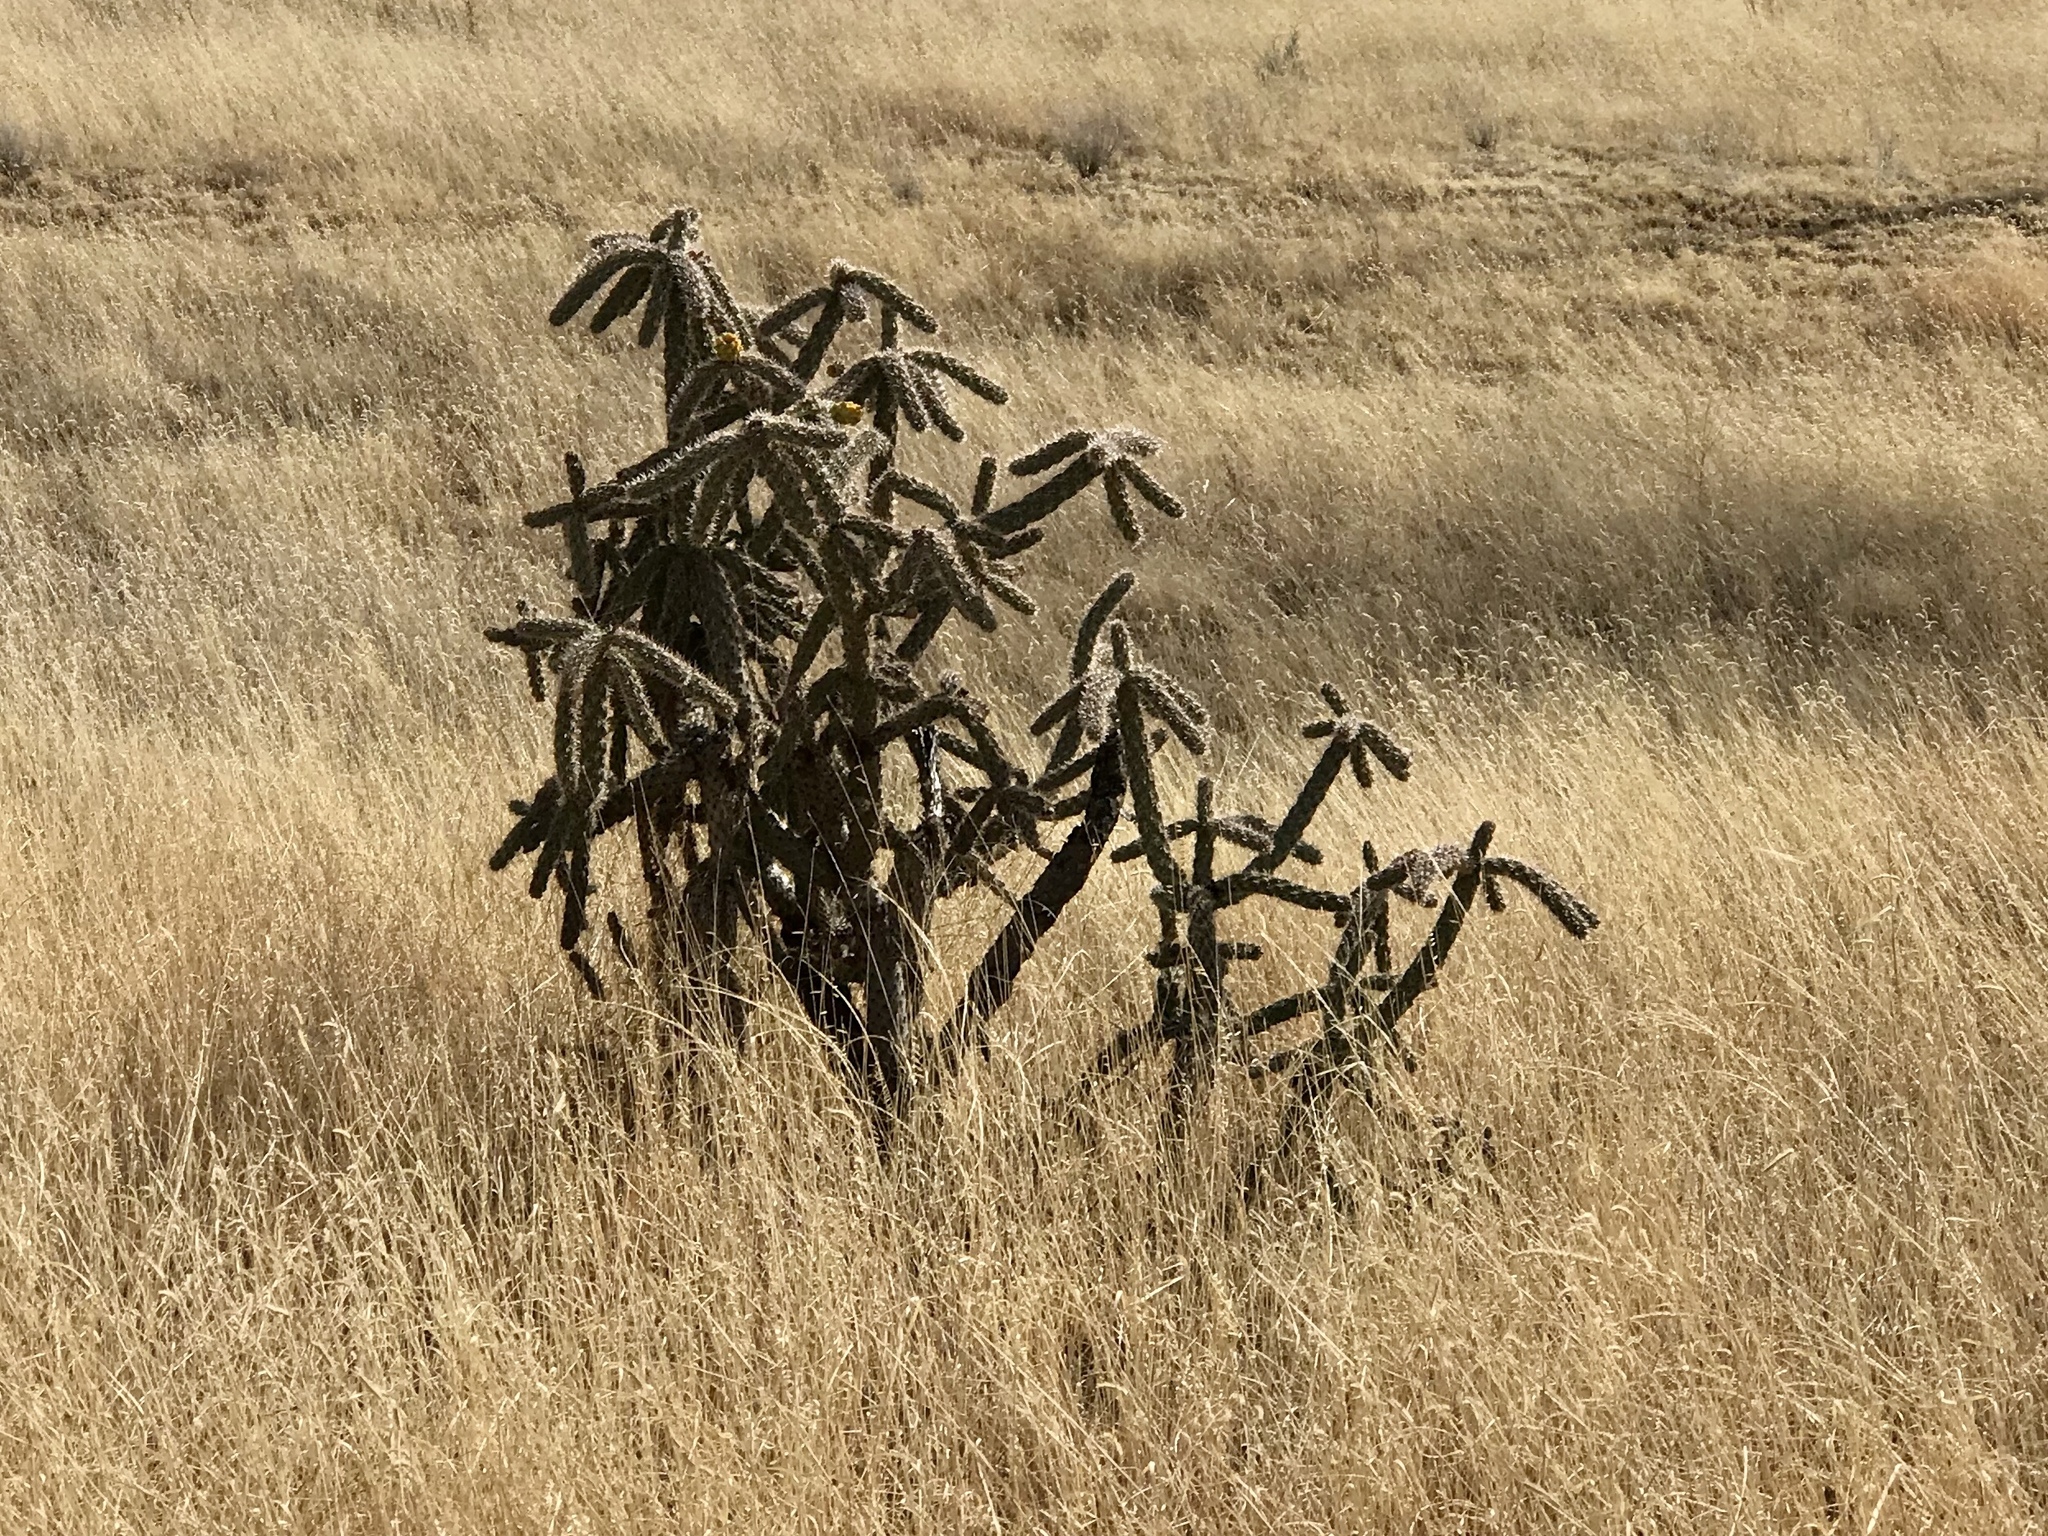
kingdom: Plantae
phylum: Tracheophyta
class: Magnoliopsida
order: Caryophyllales
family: Cactaceae
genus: Cylindropuntia
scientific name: Cylindropuntia imbricata
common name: Candelabrum cactus
